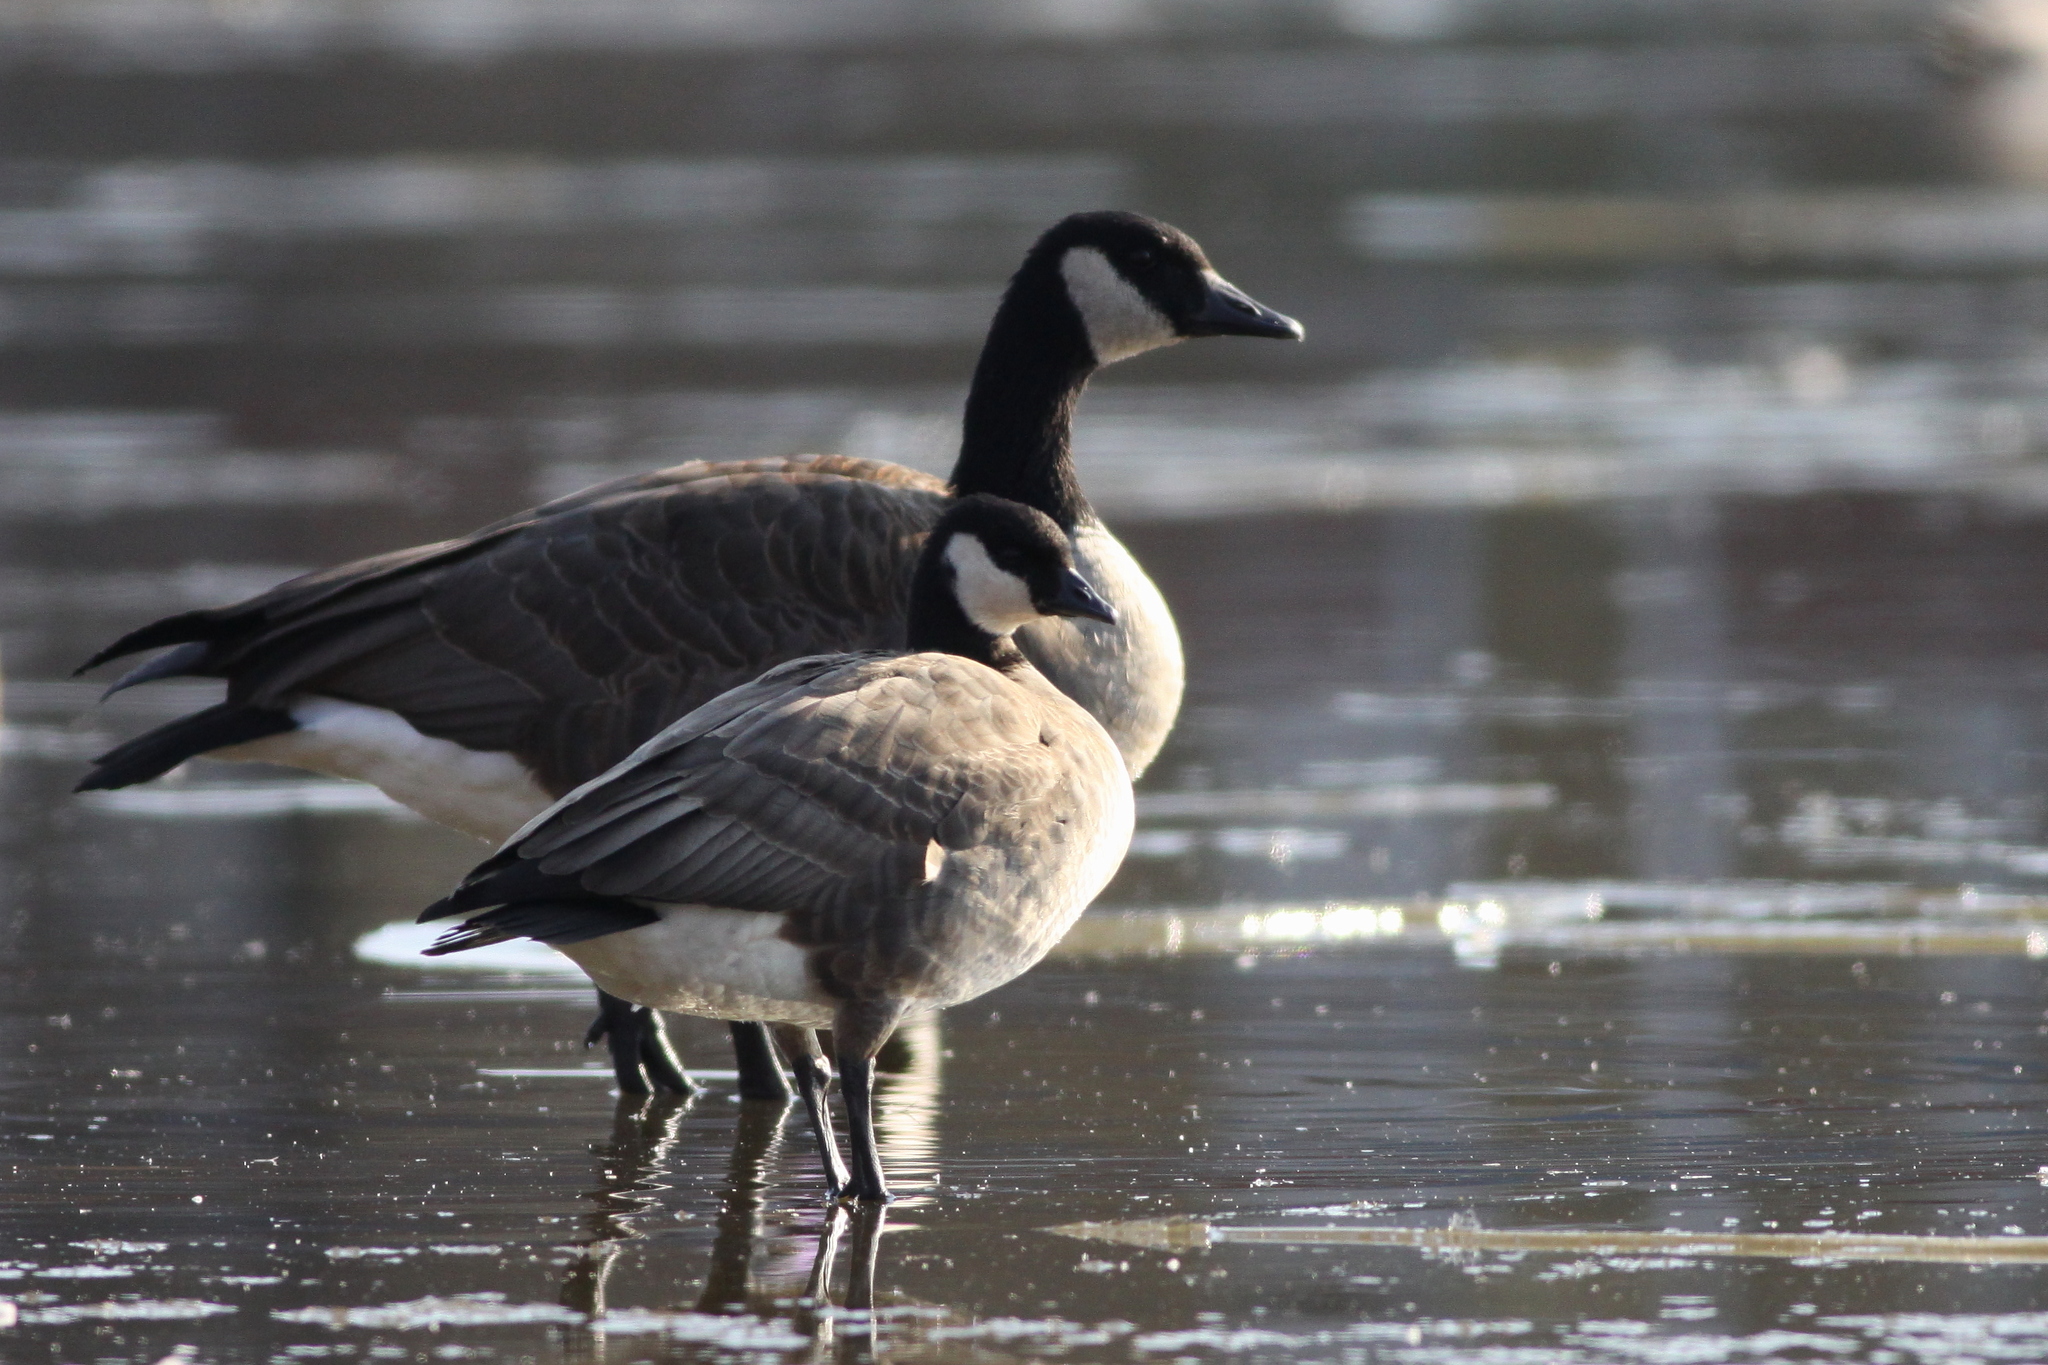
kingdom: Animalia
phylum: Chordata
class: Aves
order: Anseriformes
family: Anatidae
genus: Branta
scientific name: Branta canadensis
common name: Canada goose
